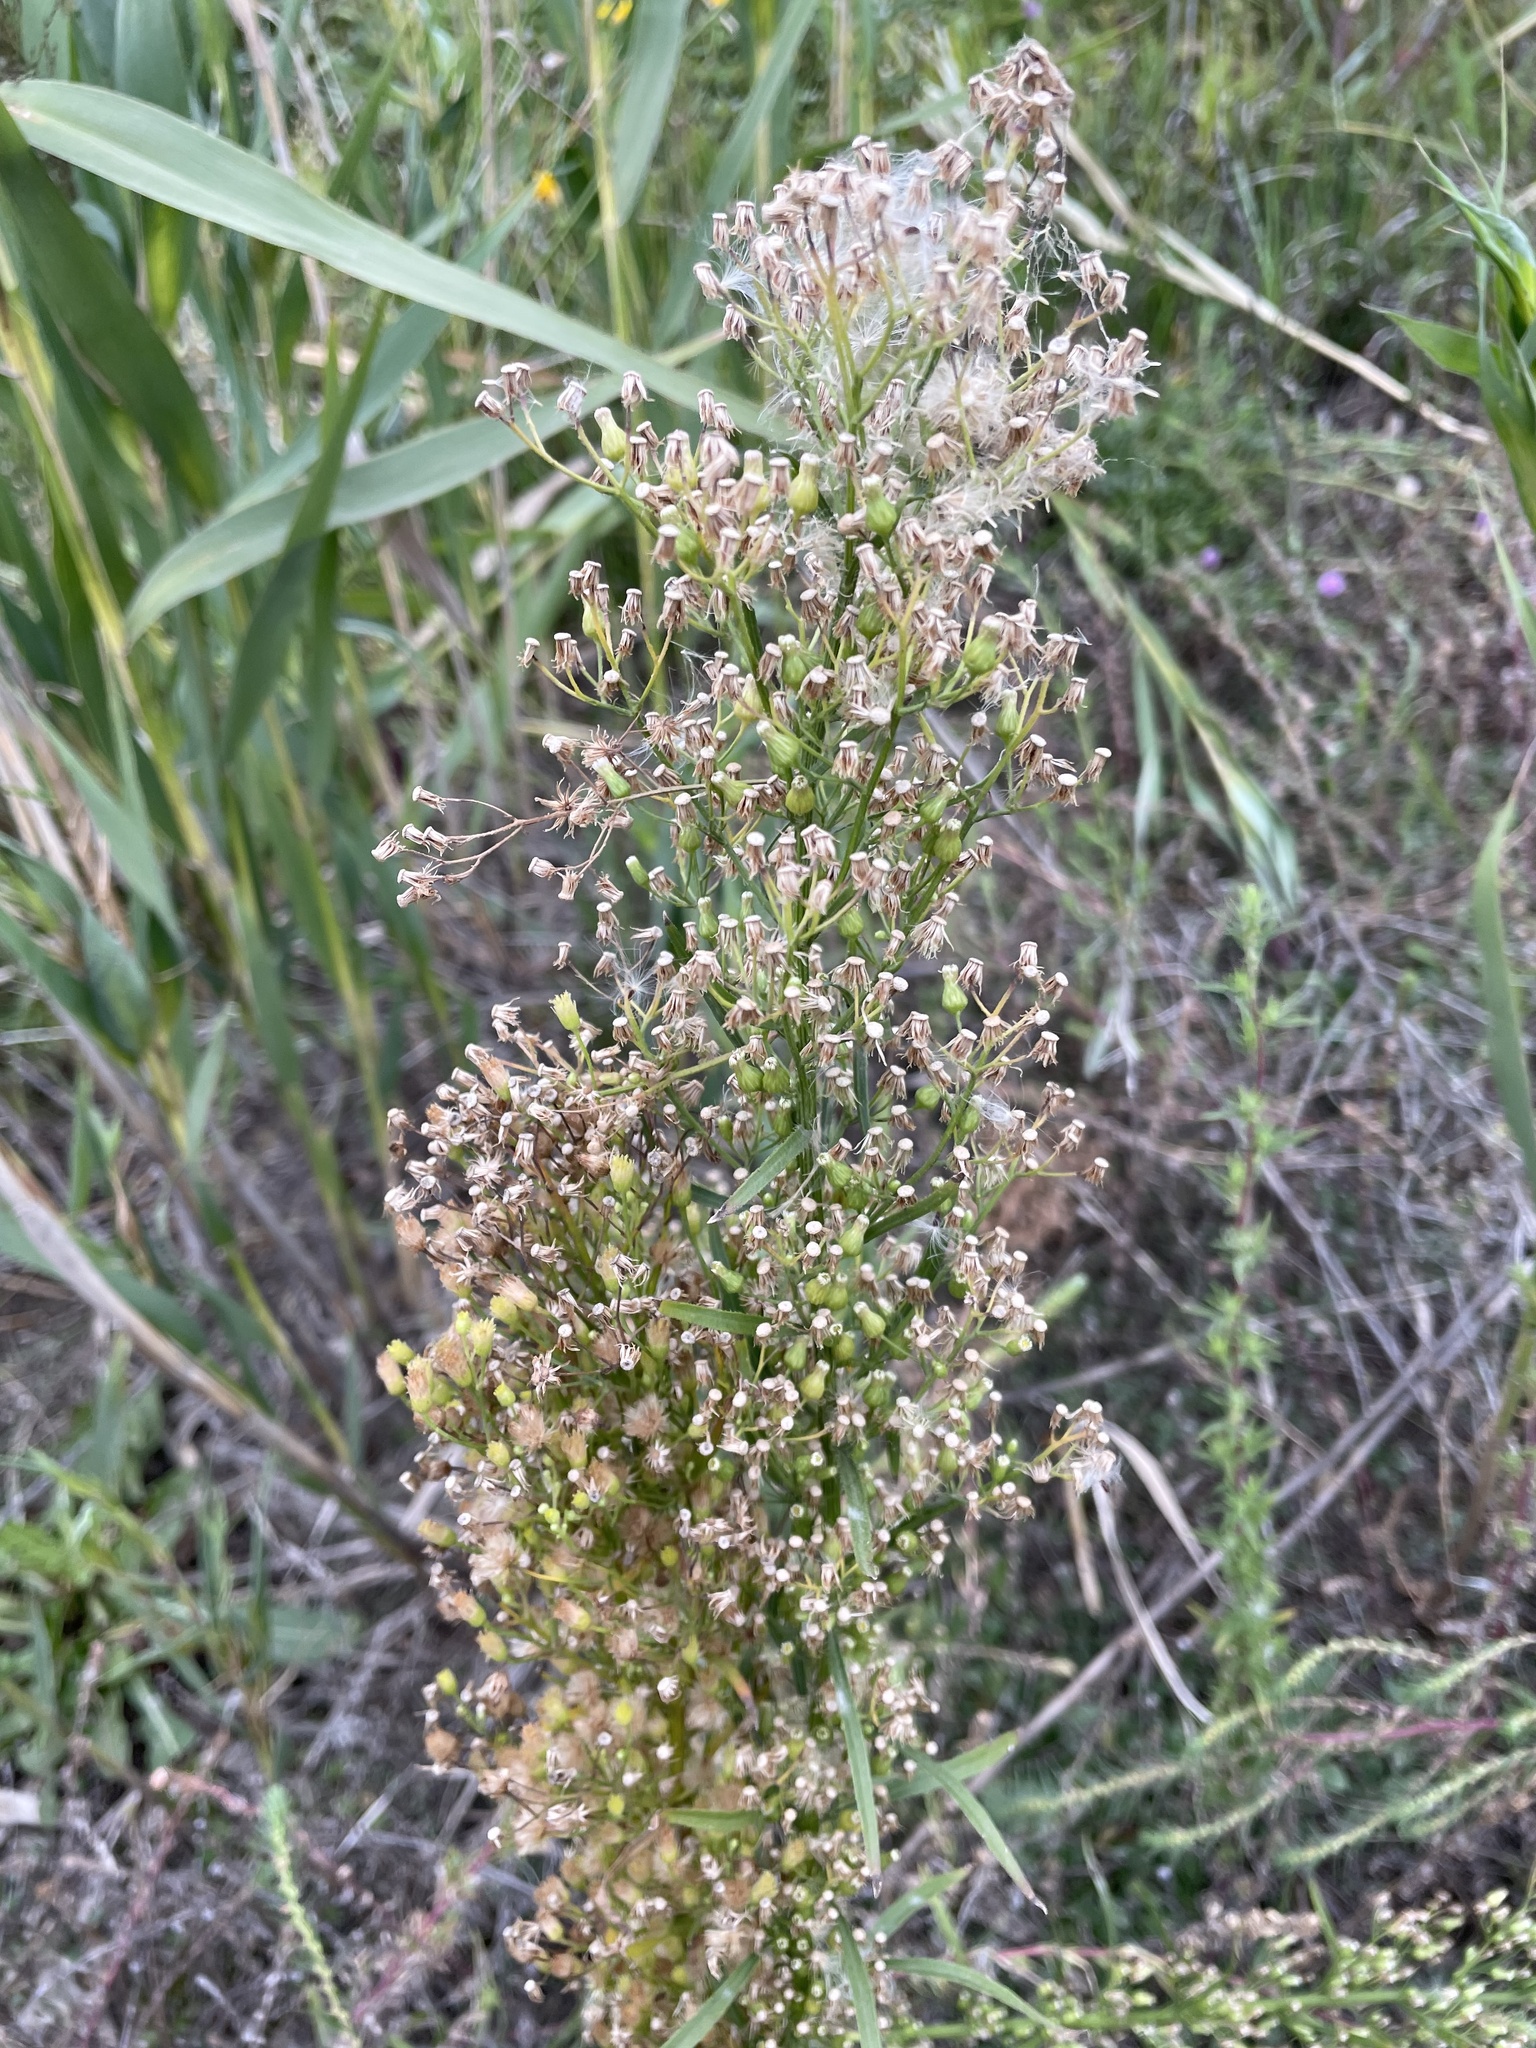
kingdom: Plantae
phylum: Tracheophyta
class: Magnoliopsida
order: Asterales
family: Asteraceae
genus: Erigeron
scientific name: Erigeron canadensis
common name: Canadian fleabane
